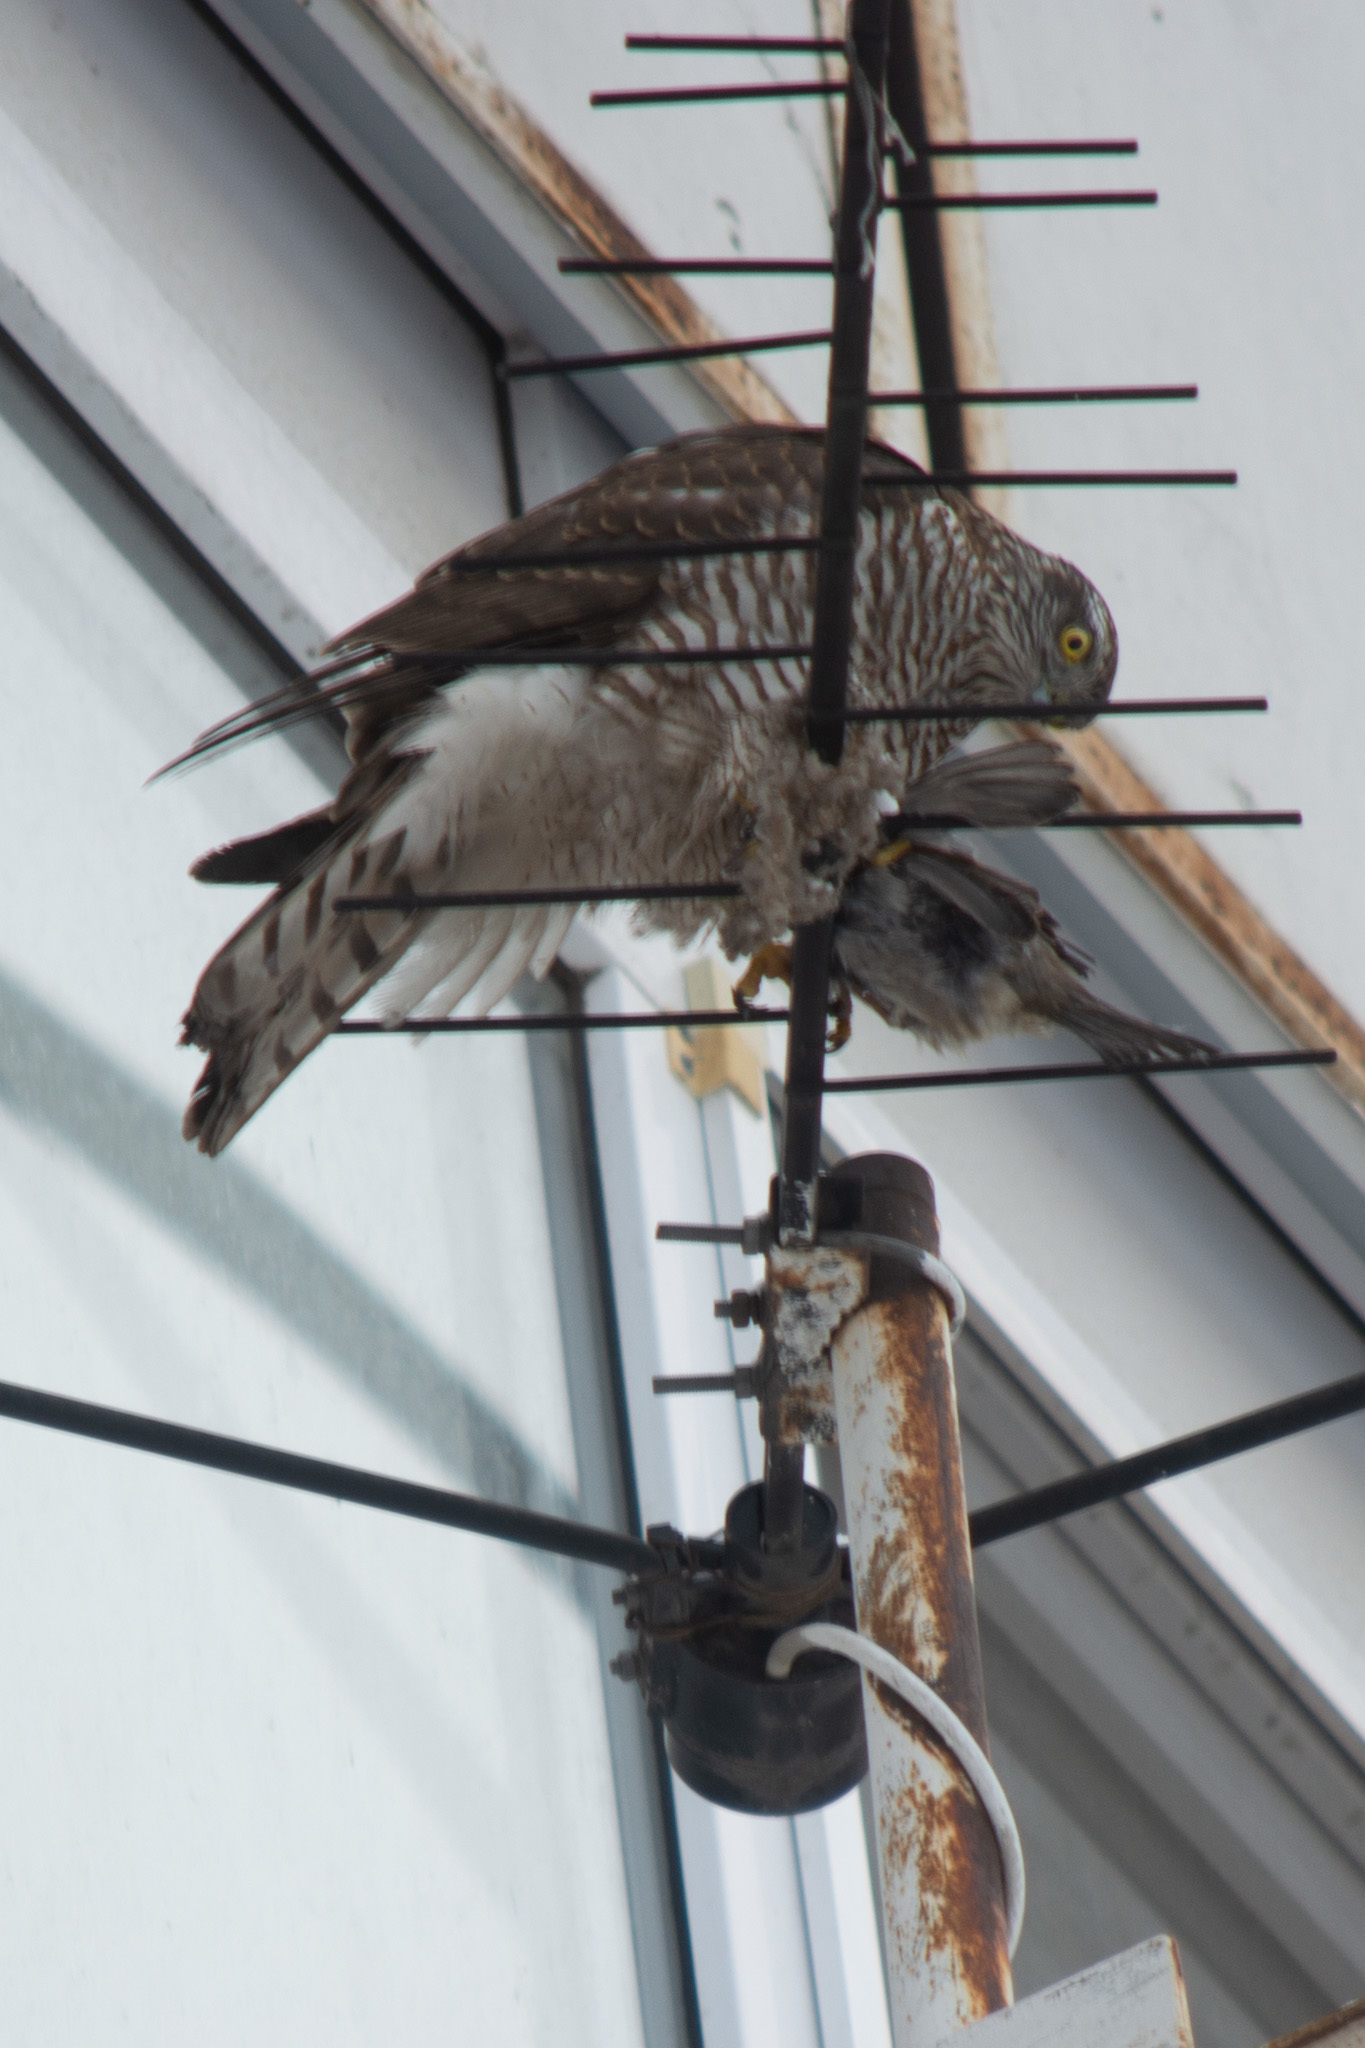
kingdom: Animalia
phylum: Chordata
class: Aves
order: Accipitriformes
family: Accipitridae
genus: Accipiter
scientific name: Accipiter nisus
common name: Eurasian sparrowhawk
